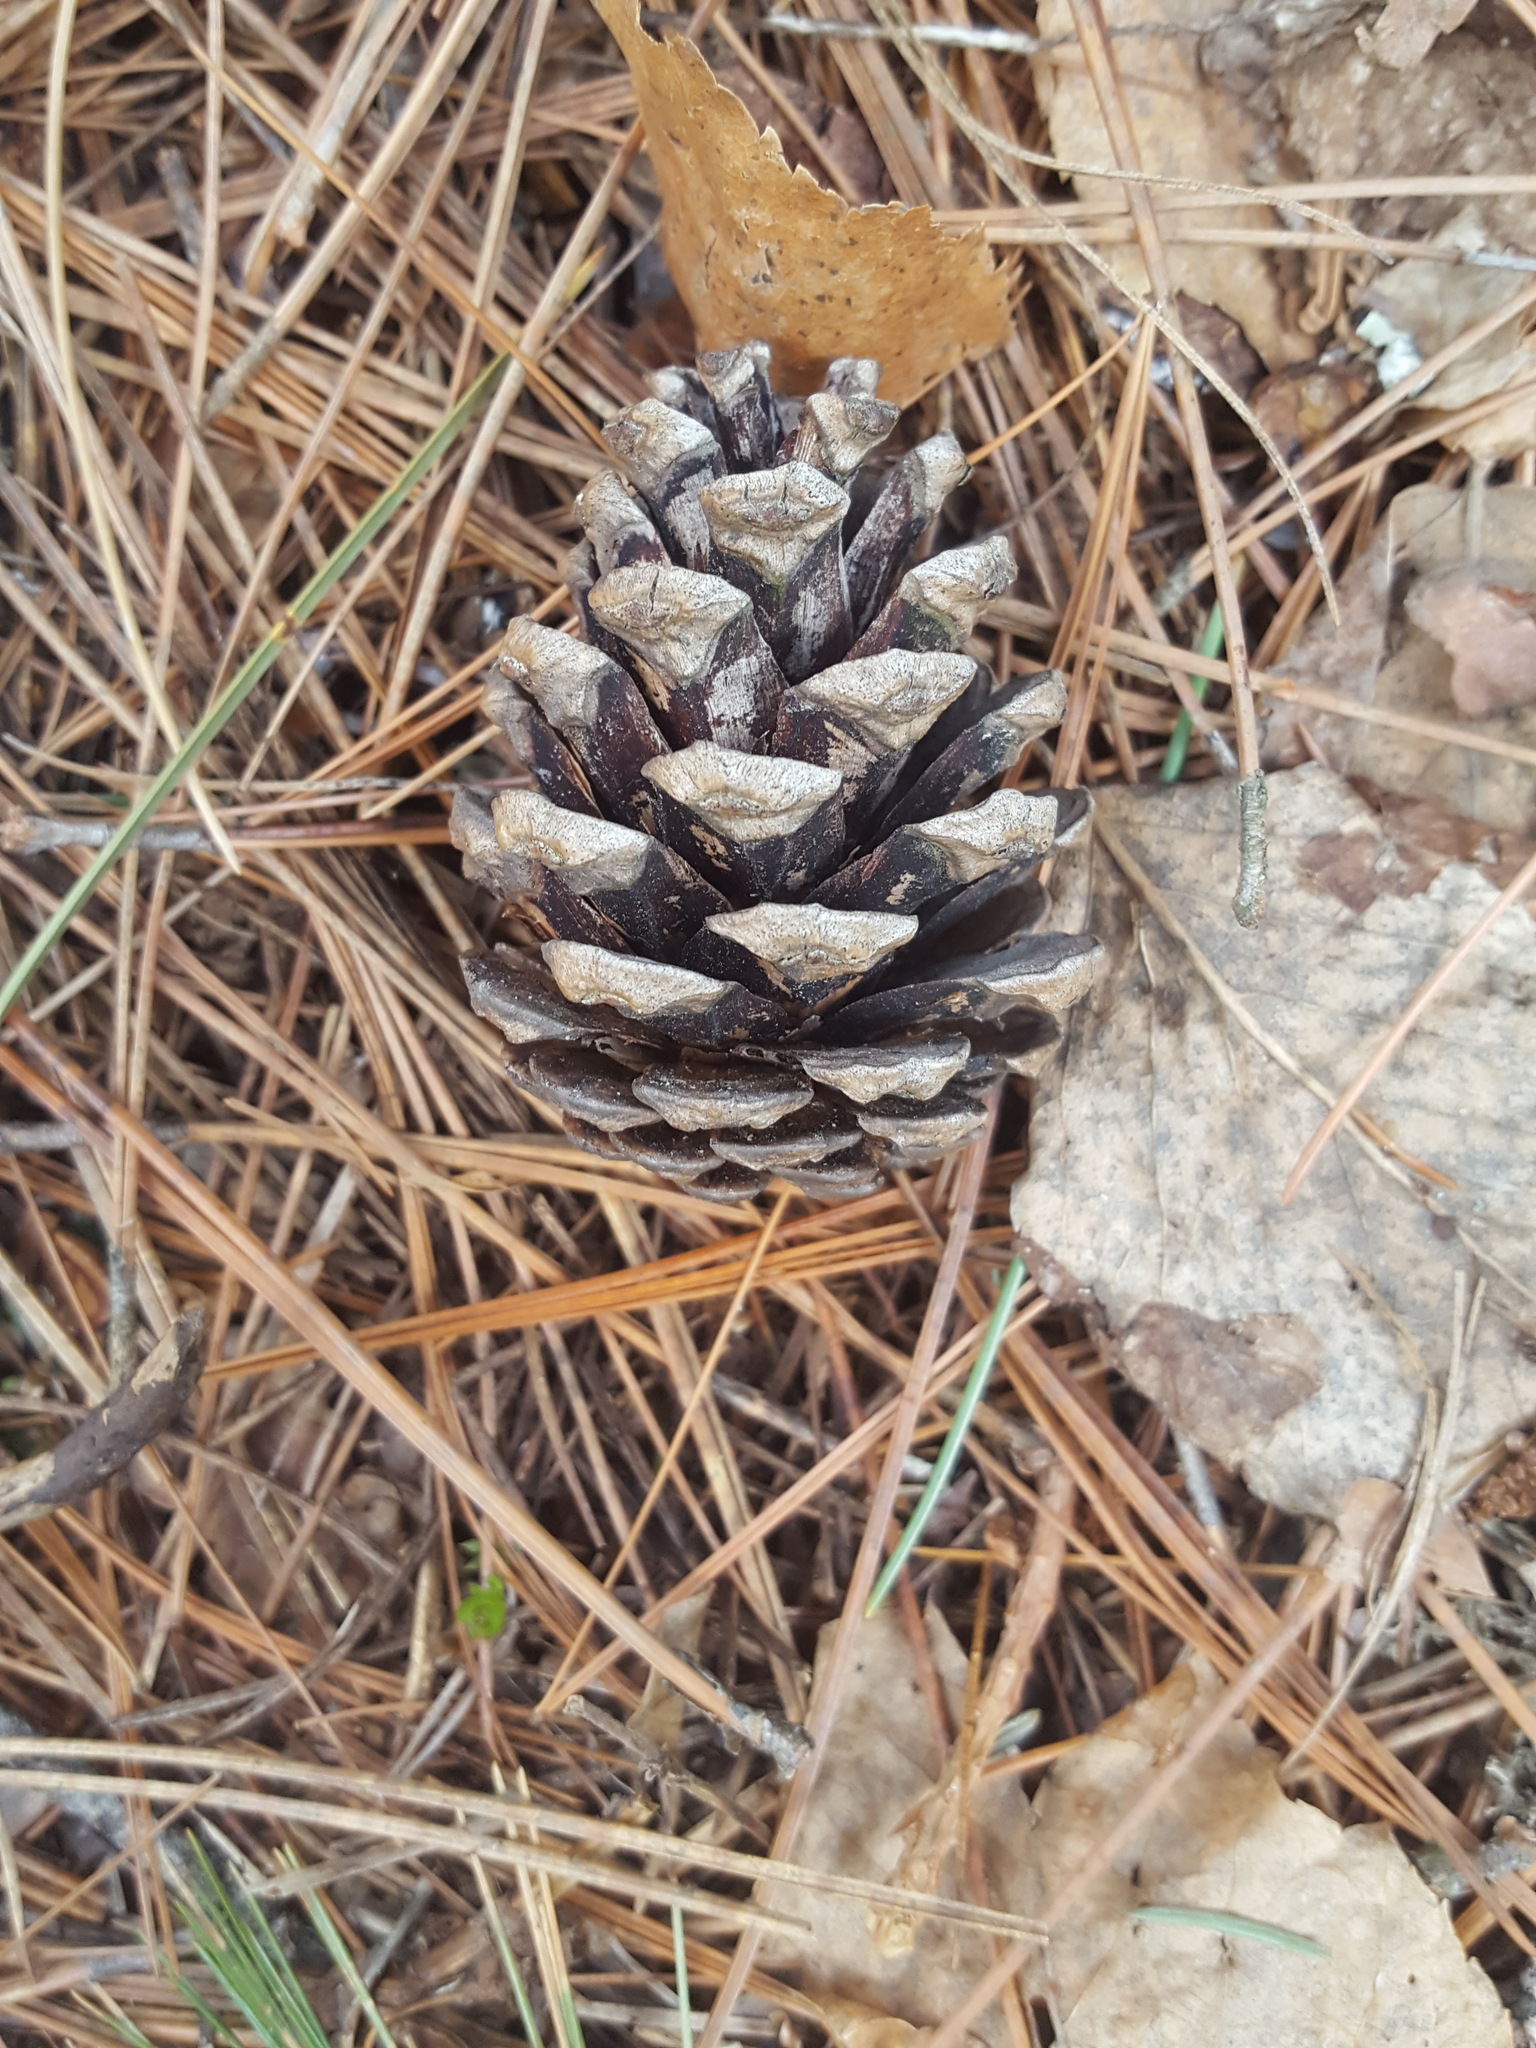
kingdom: Plantae
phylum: Tracheophyta
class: Pinopsida
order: Pinales
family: Pinaceae
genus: Pinus
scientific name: Pinus resinosa
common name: Norway pine
